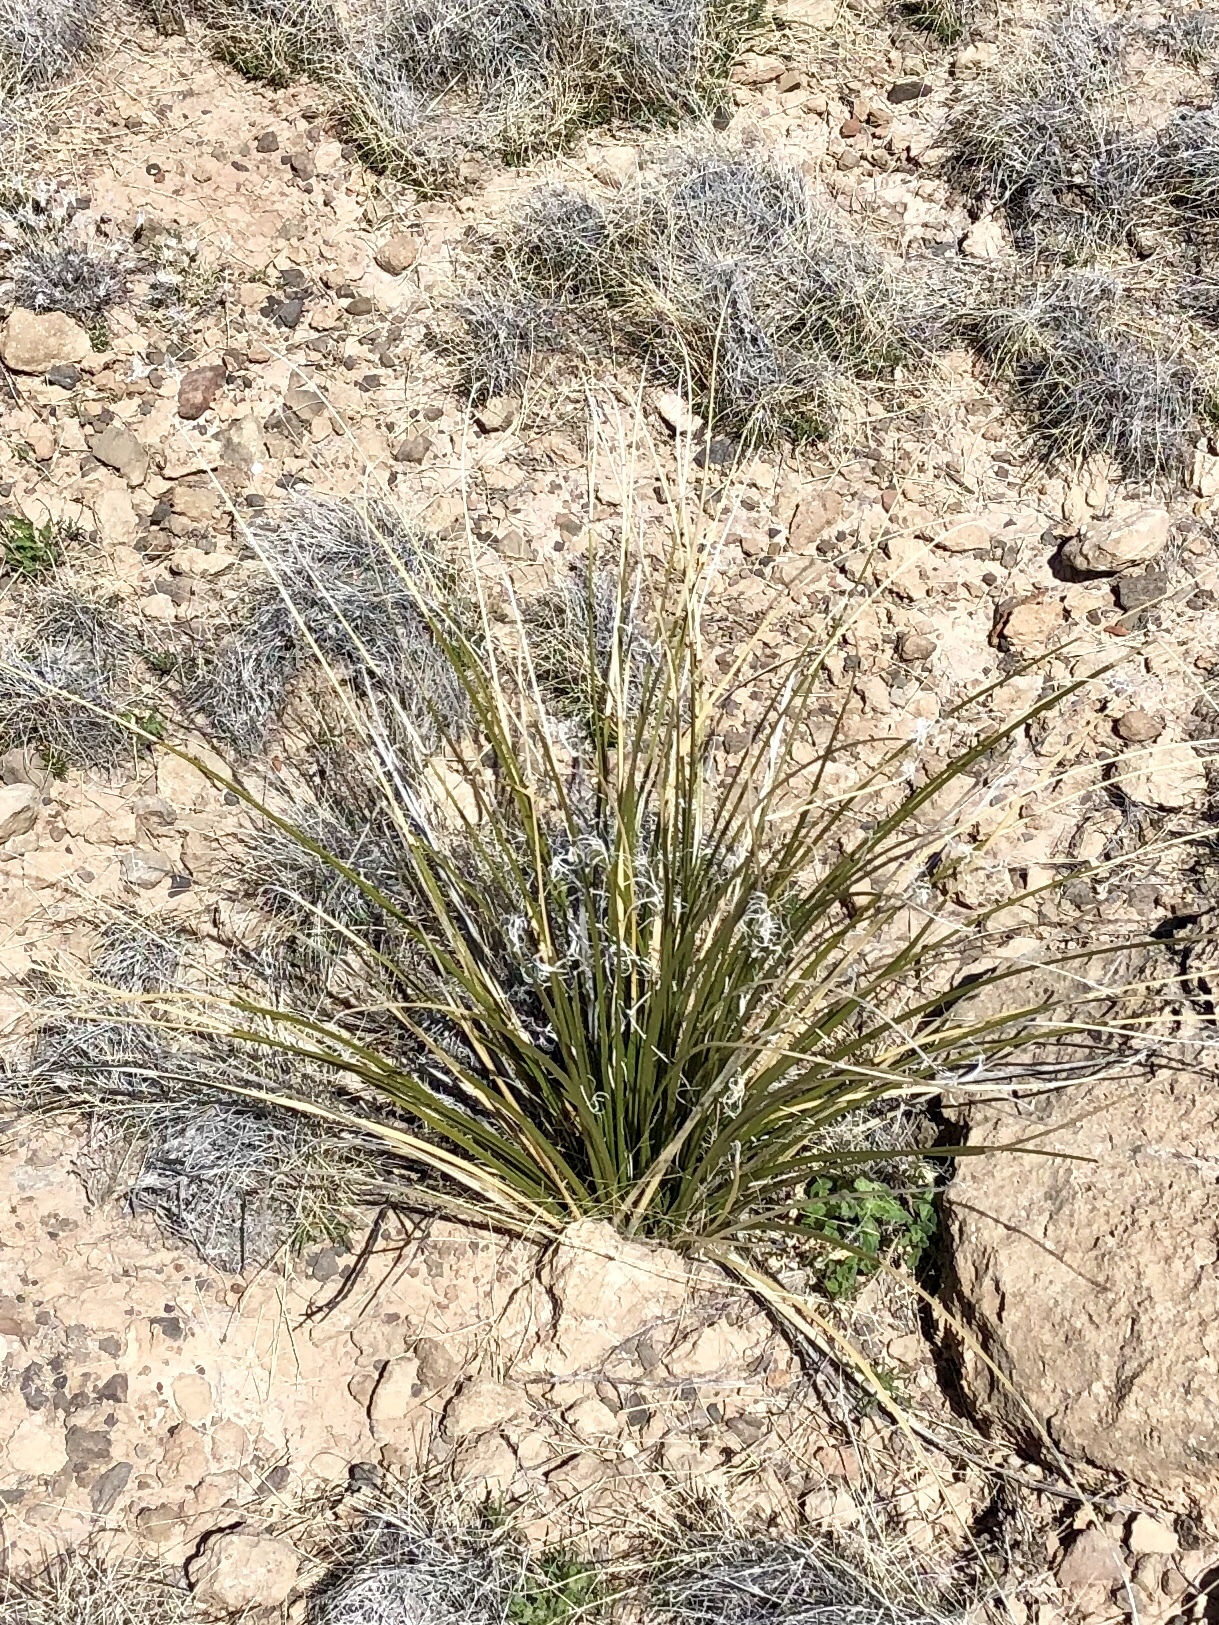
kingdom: Plantae
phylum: Tracheophyta
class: Liliopsida
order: Asparagales
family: Asparagaceae
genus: Nolina
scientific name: Nolina microcarpa
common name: Bear-grass
